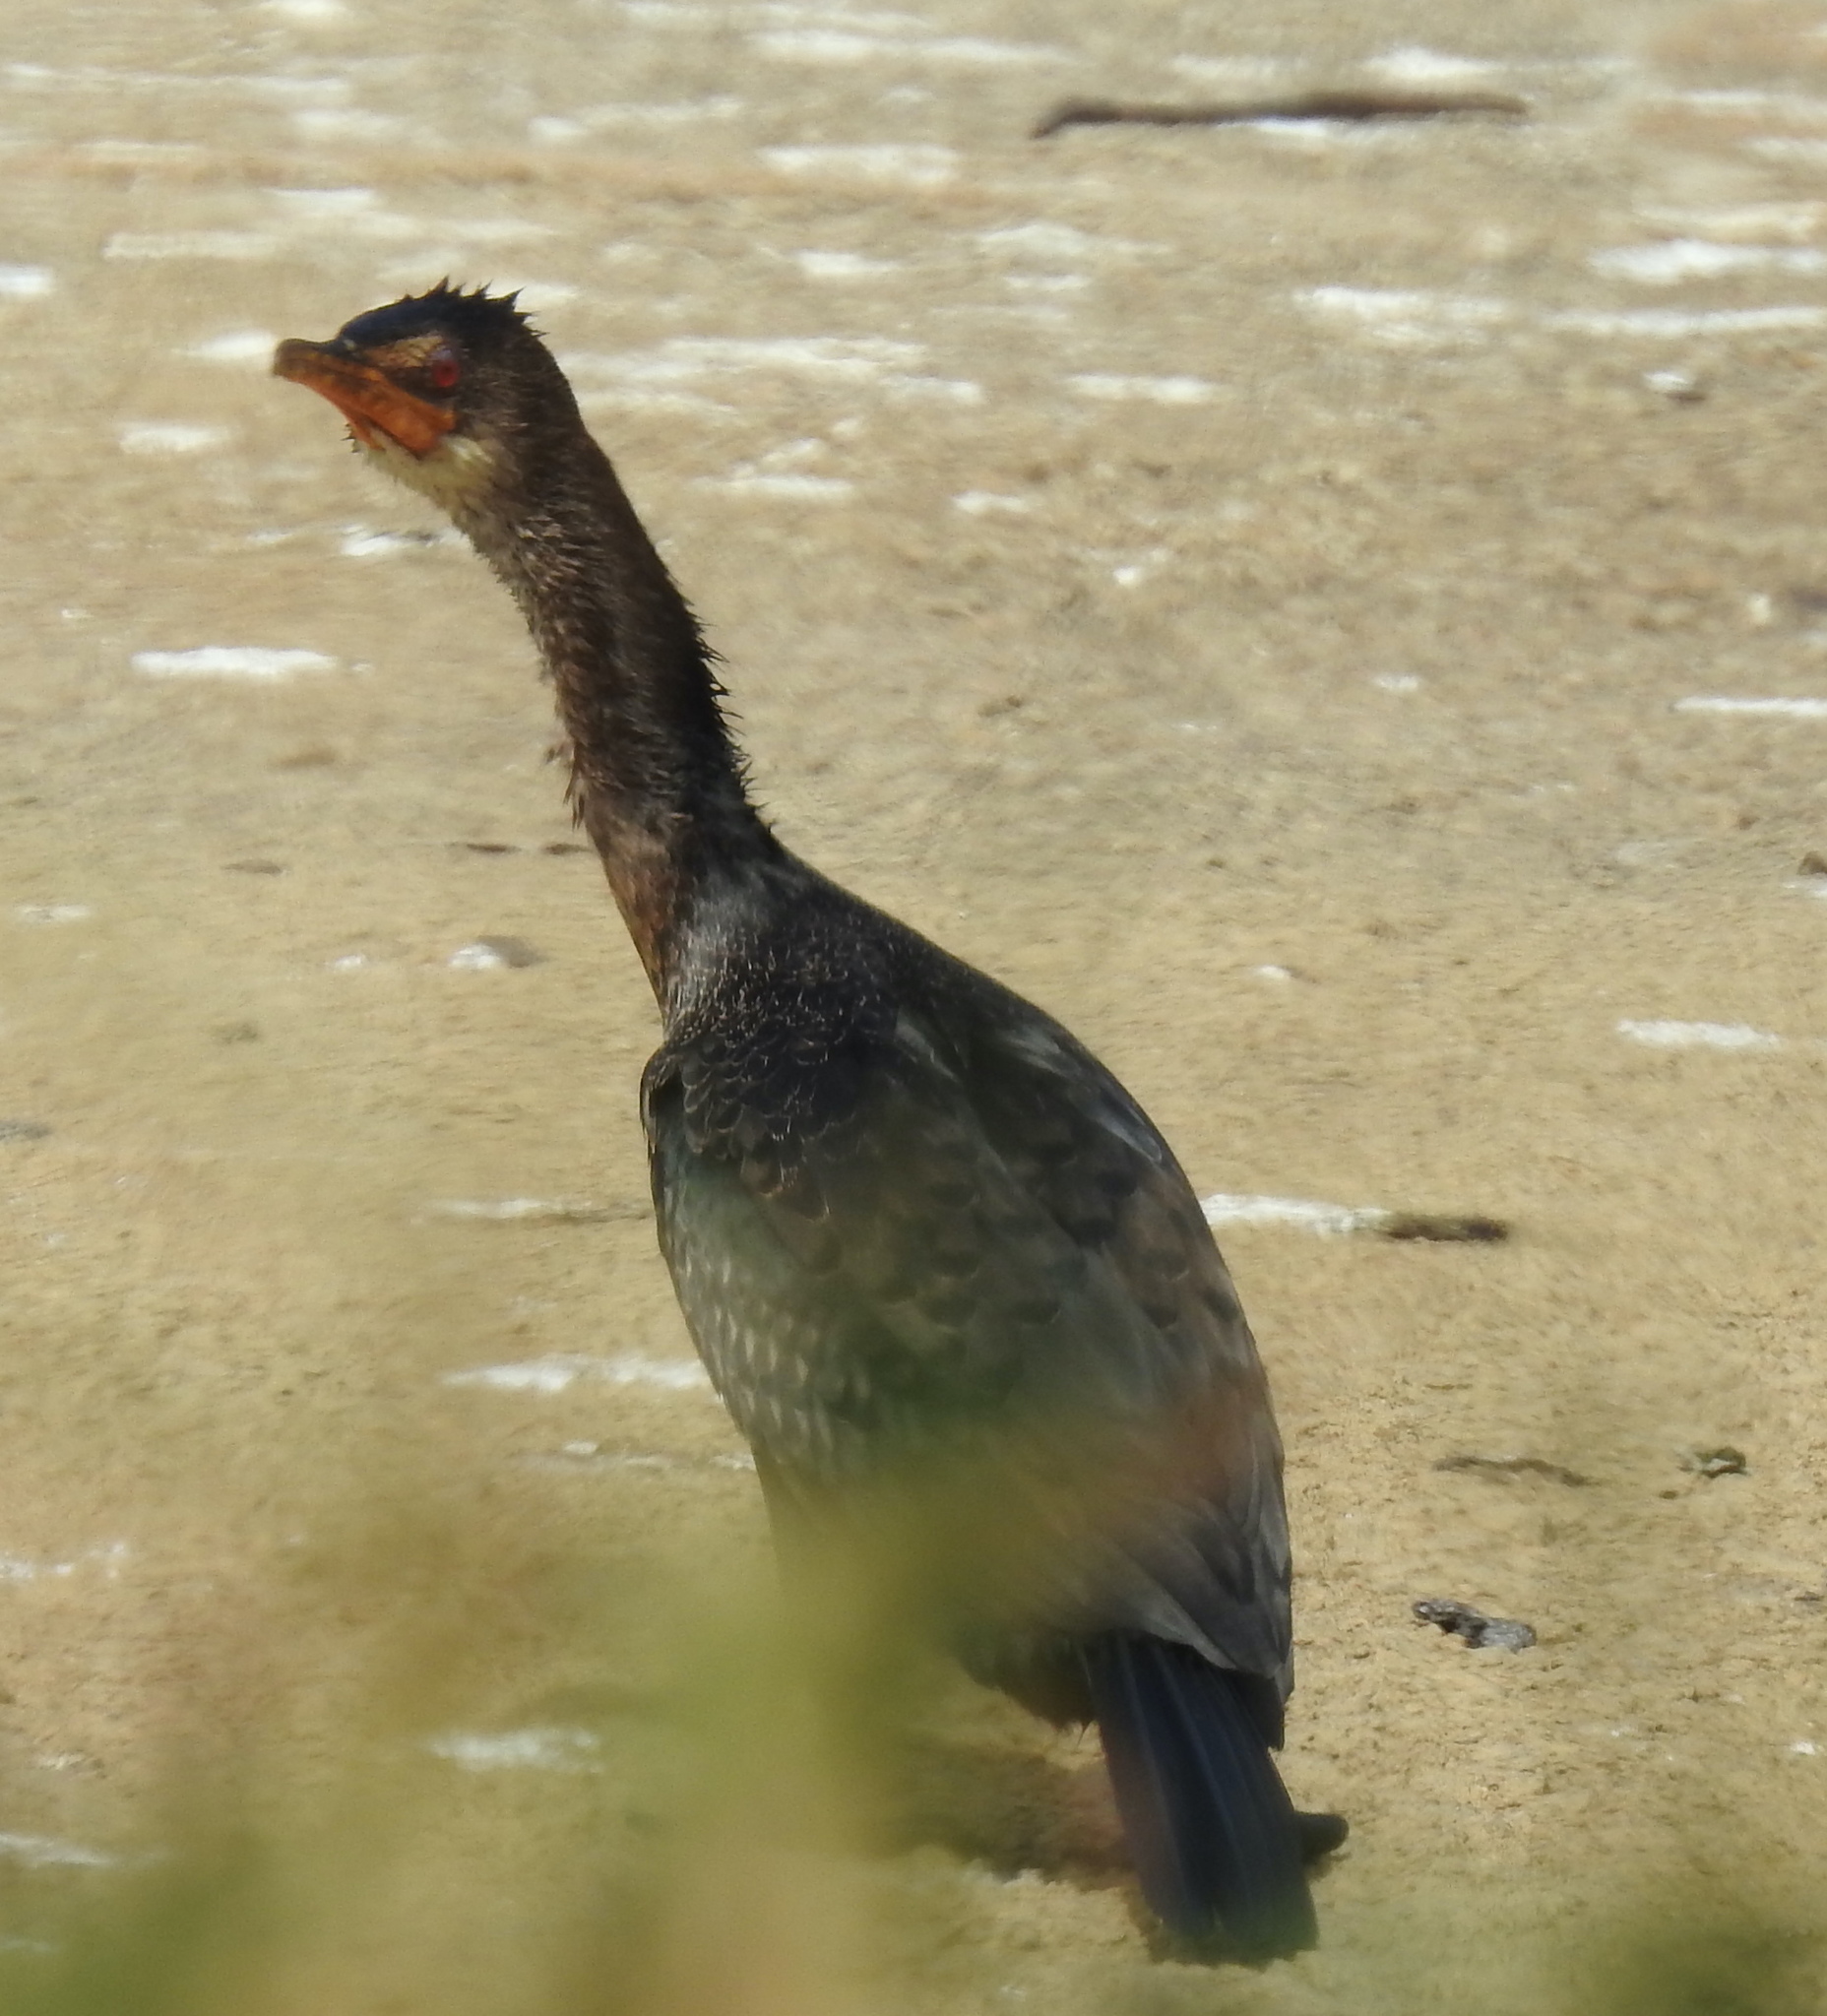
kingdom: Animalia
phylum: Chordata
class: Aves
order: Suliformes
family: Phalacrocoracidae
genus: Microcarbo
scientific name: Microcarbo africanus
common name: Long-tailed cormorant
